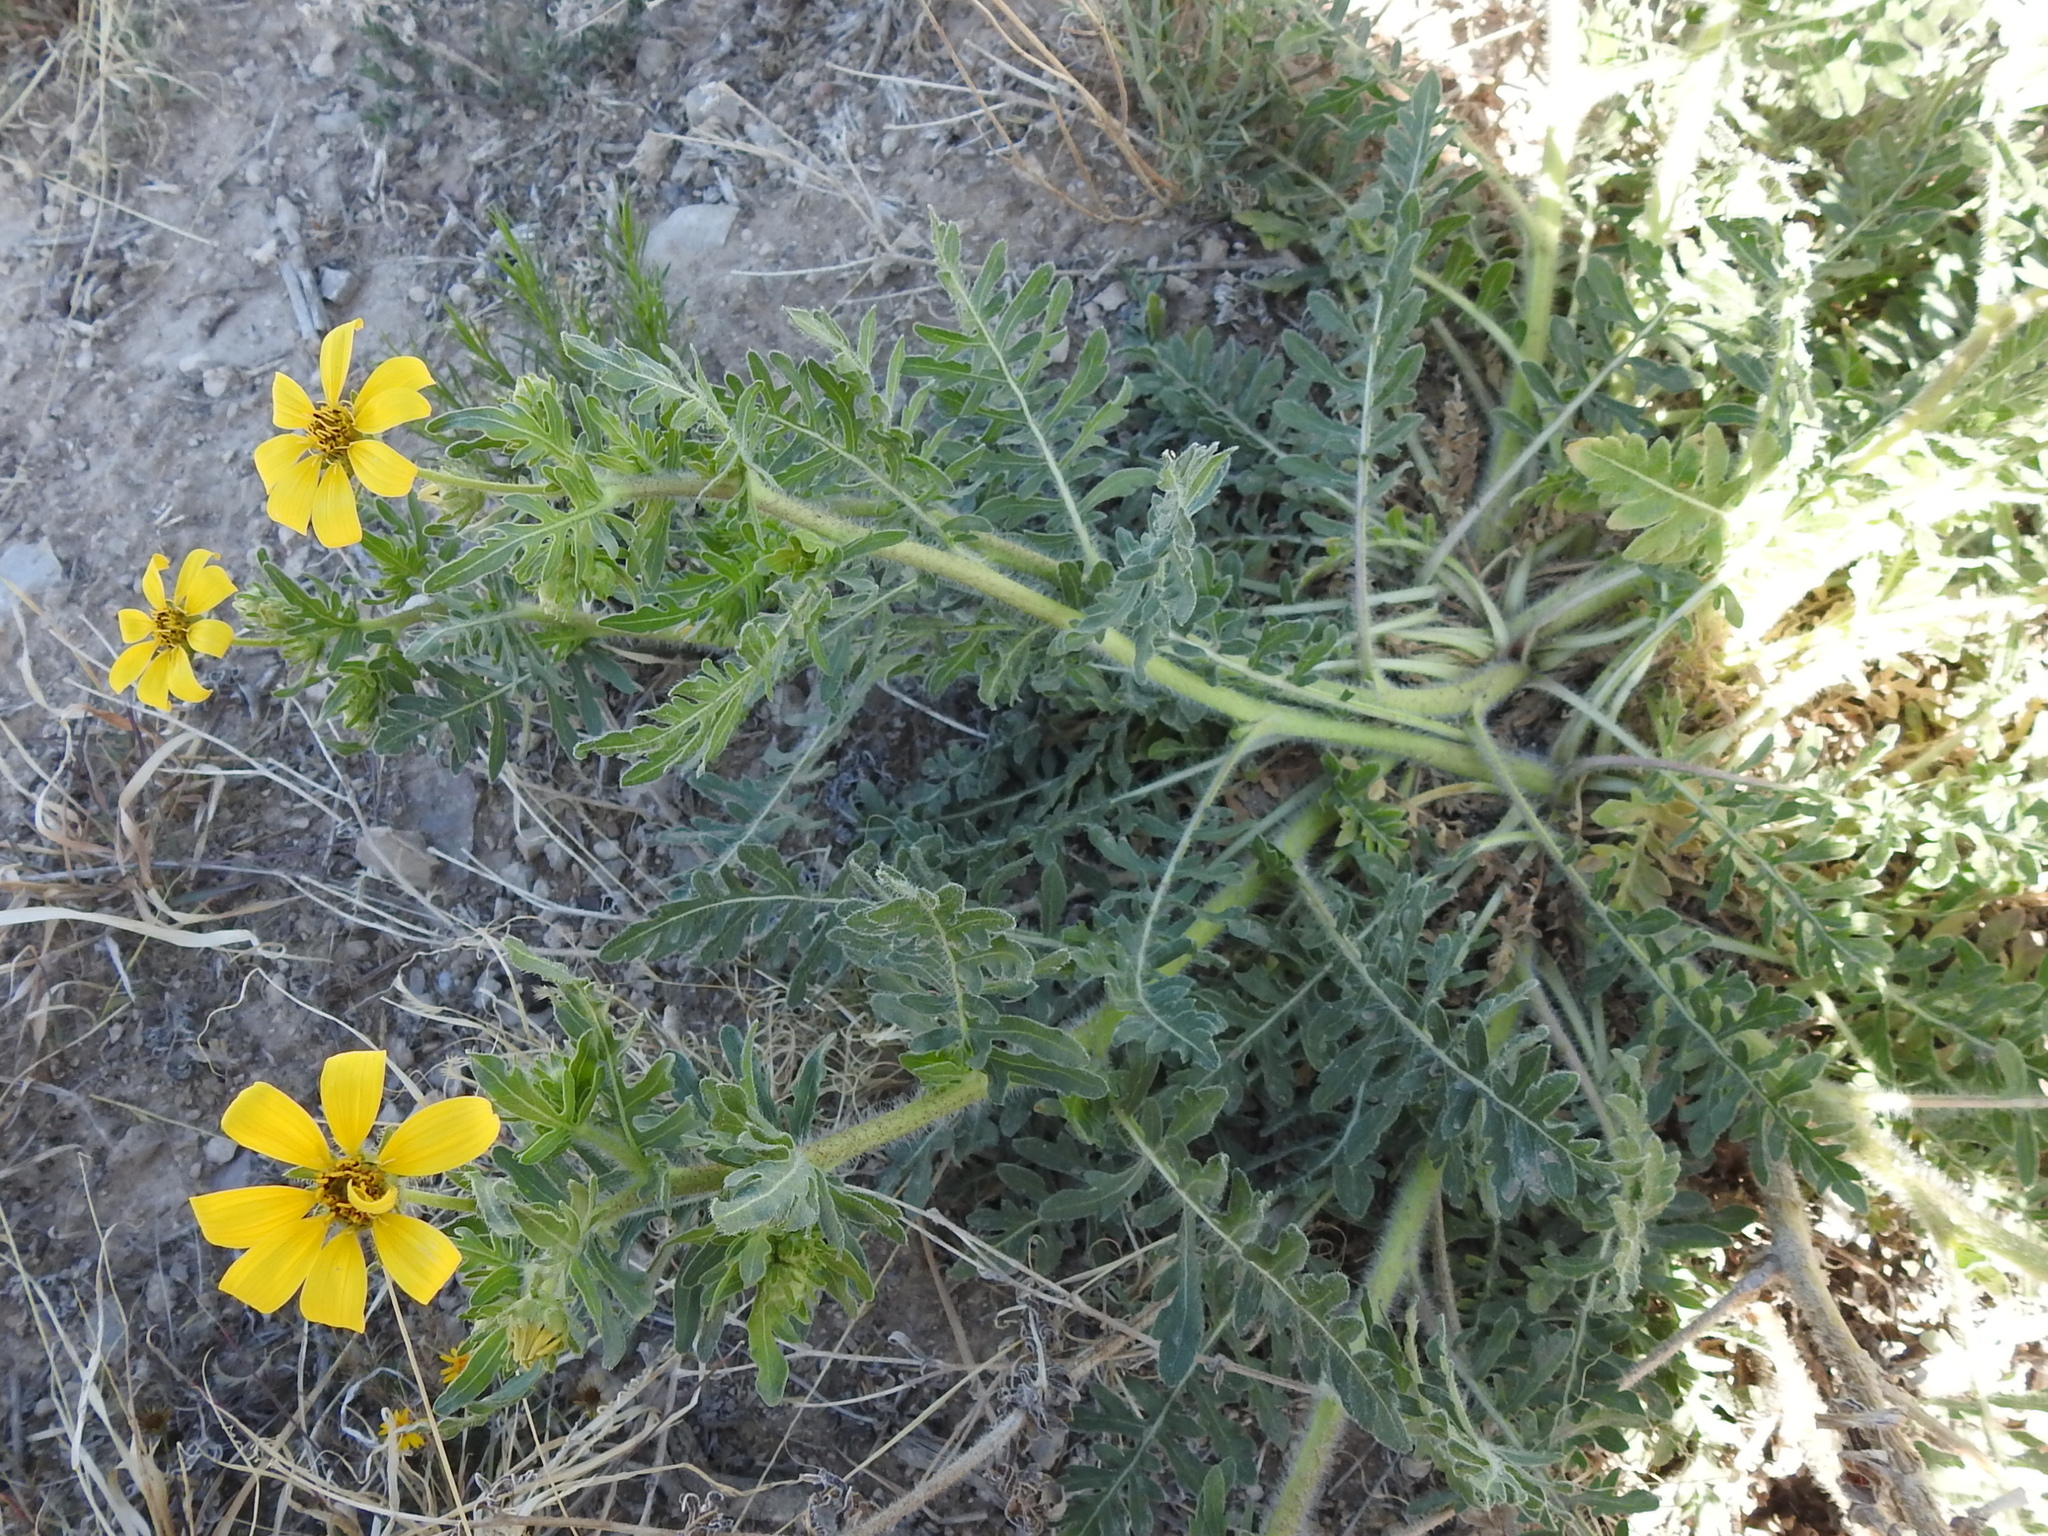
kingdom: Plantae
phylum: Tracheophyta
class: Magnoliopsida
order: Asterales
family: Asteraceae
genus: Engelmannia
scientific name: Engelmannia peristenia
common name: Engelmann's daisy
